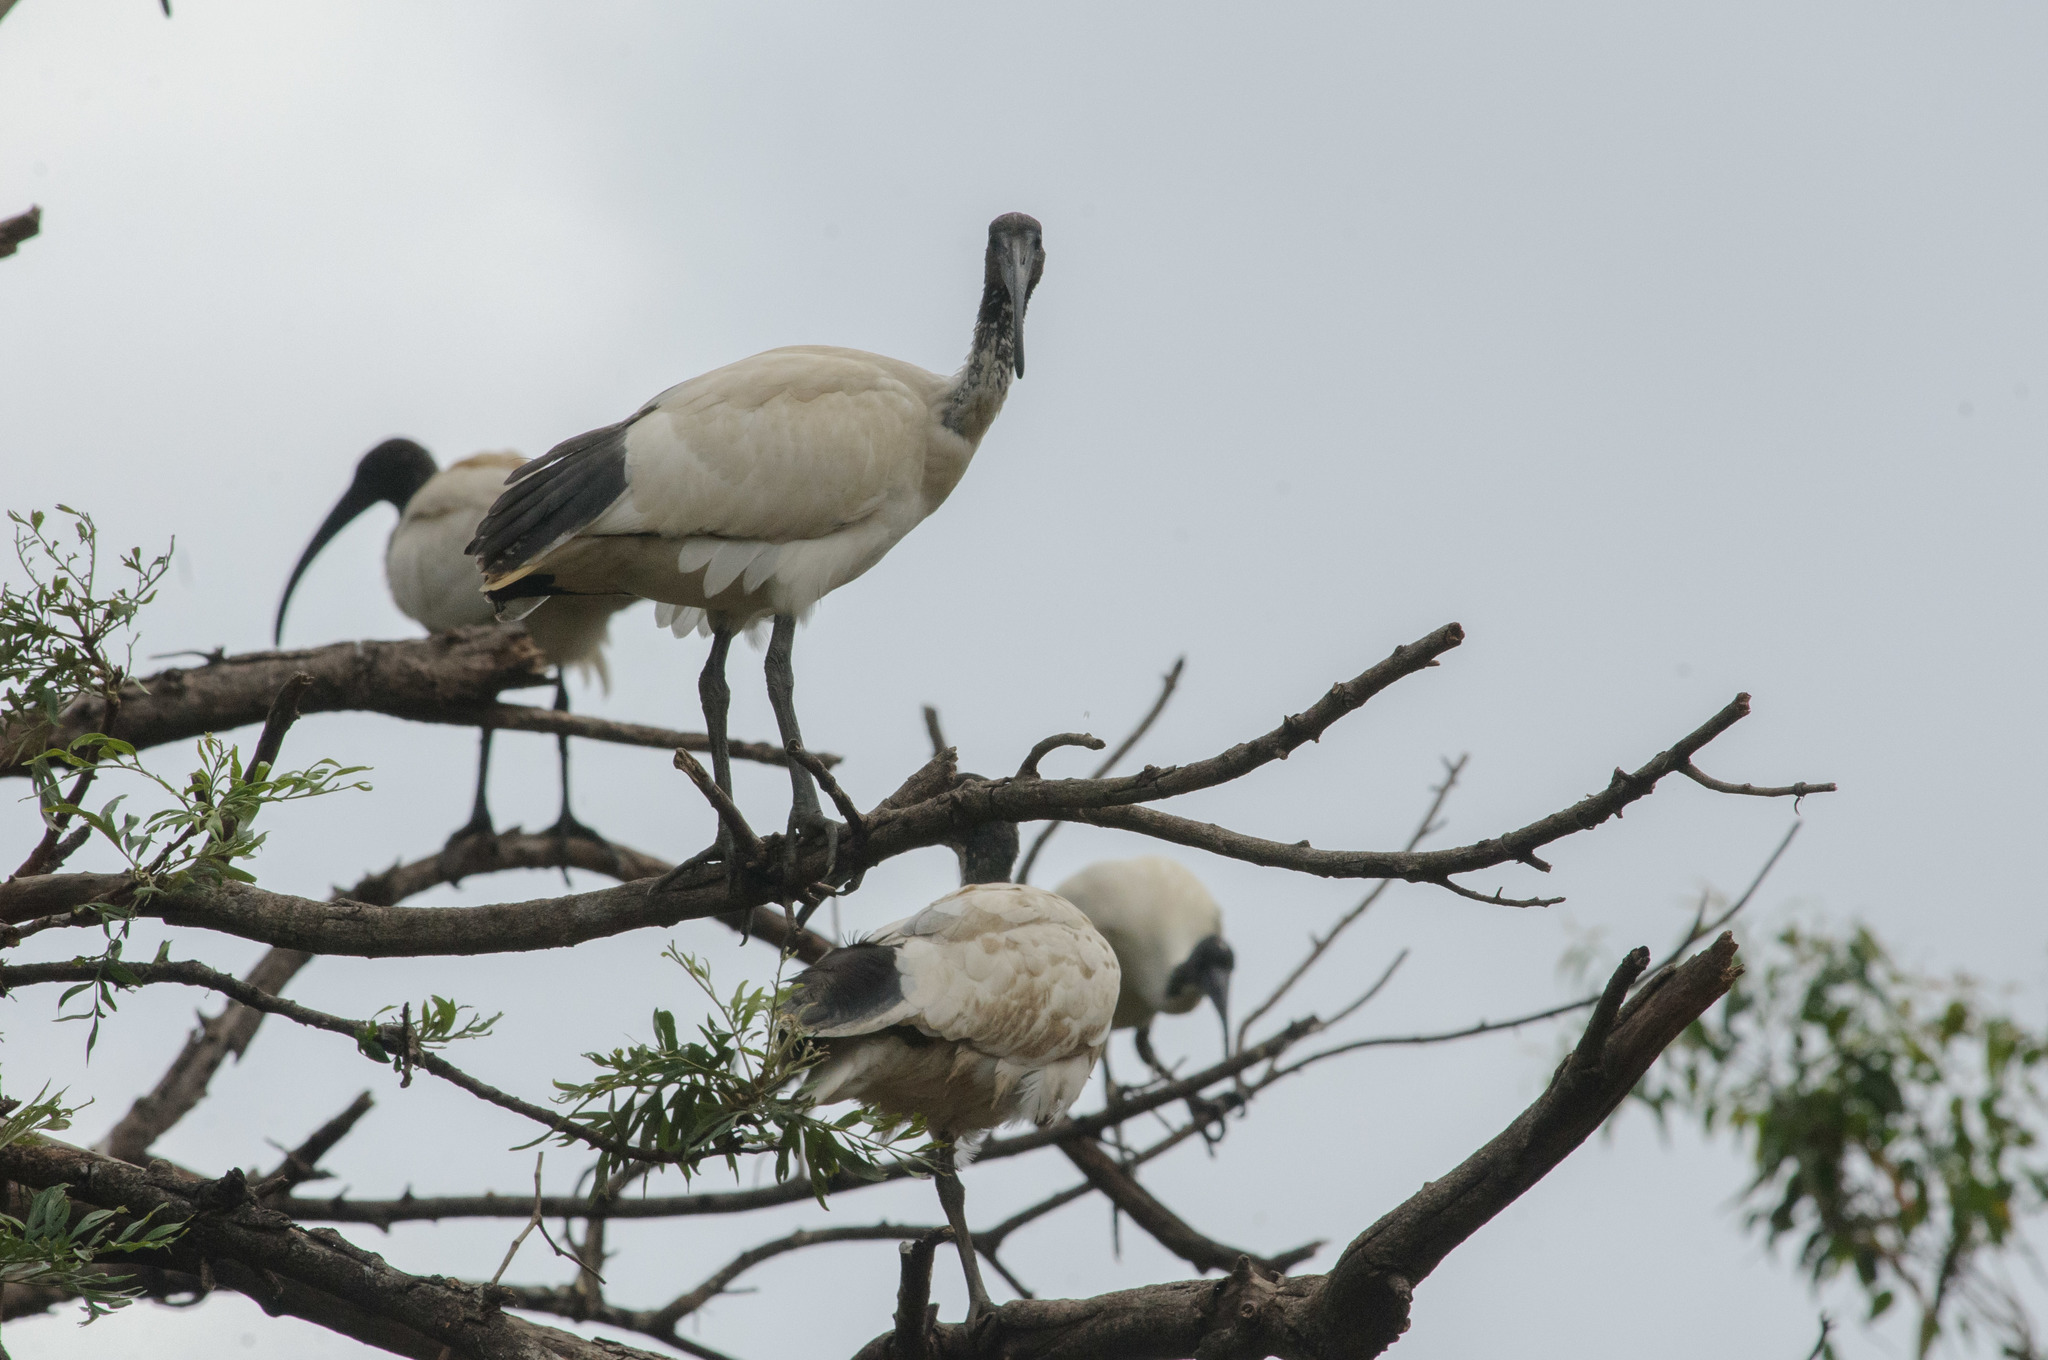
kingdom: Animalia
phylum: Chordata
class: Aves
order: Pelecaniformes
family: Threskiornithidae
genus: Threskiornis
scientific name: Threskiornis molucca
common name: Australian white ibis
